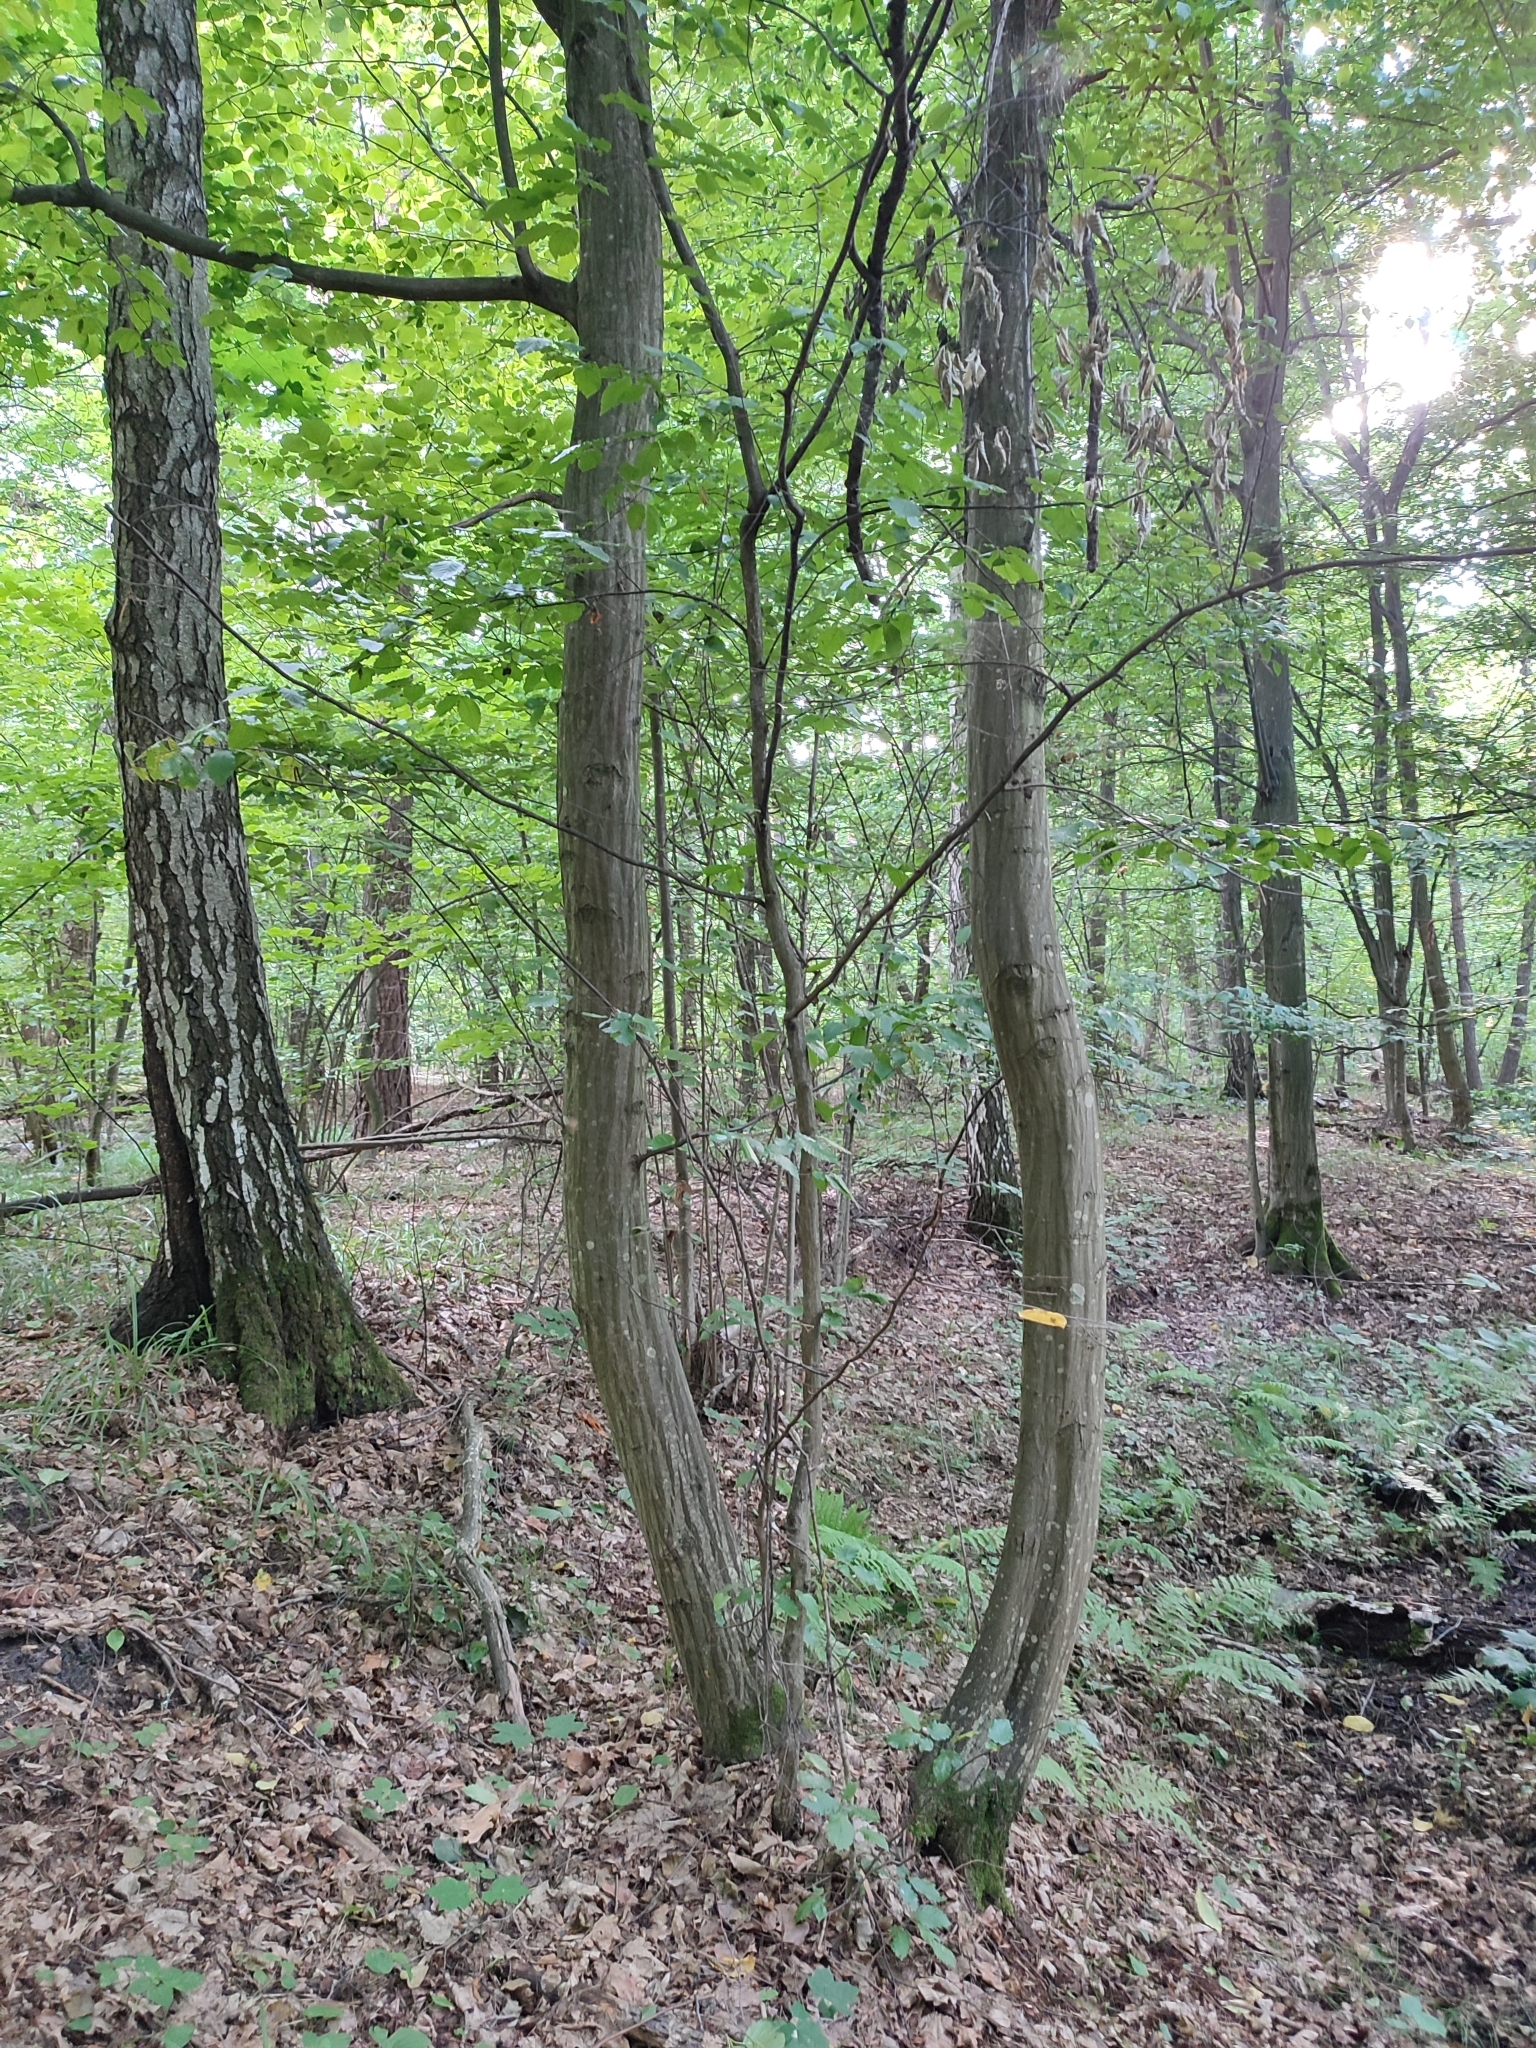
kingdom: Plantae
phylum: Tracheophyta
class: Magnoliopsida
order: Fagales
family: Betulaceae
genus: Carpinus
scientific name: Carpinus betulus
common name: Hornbeam
